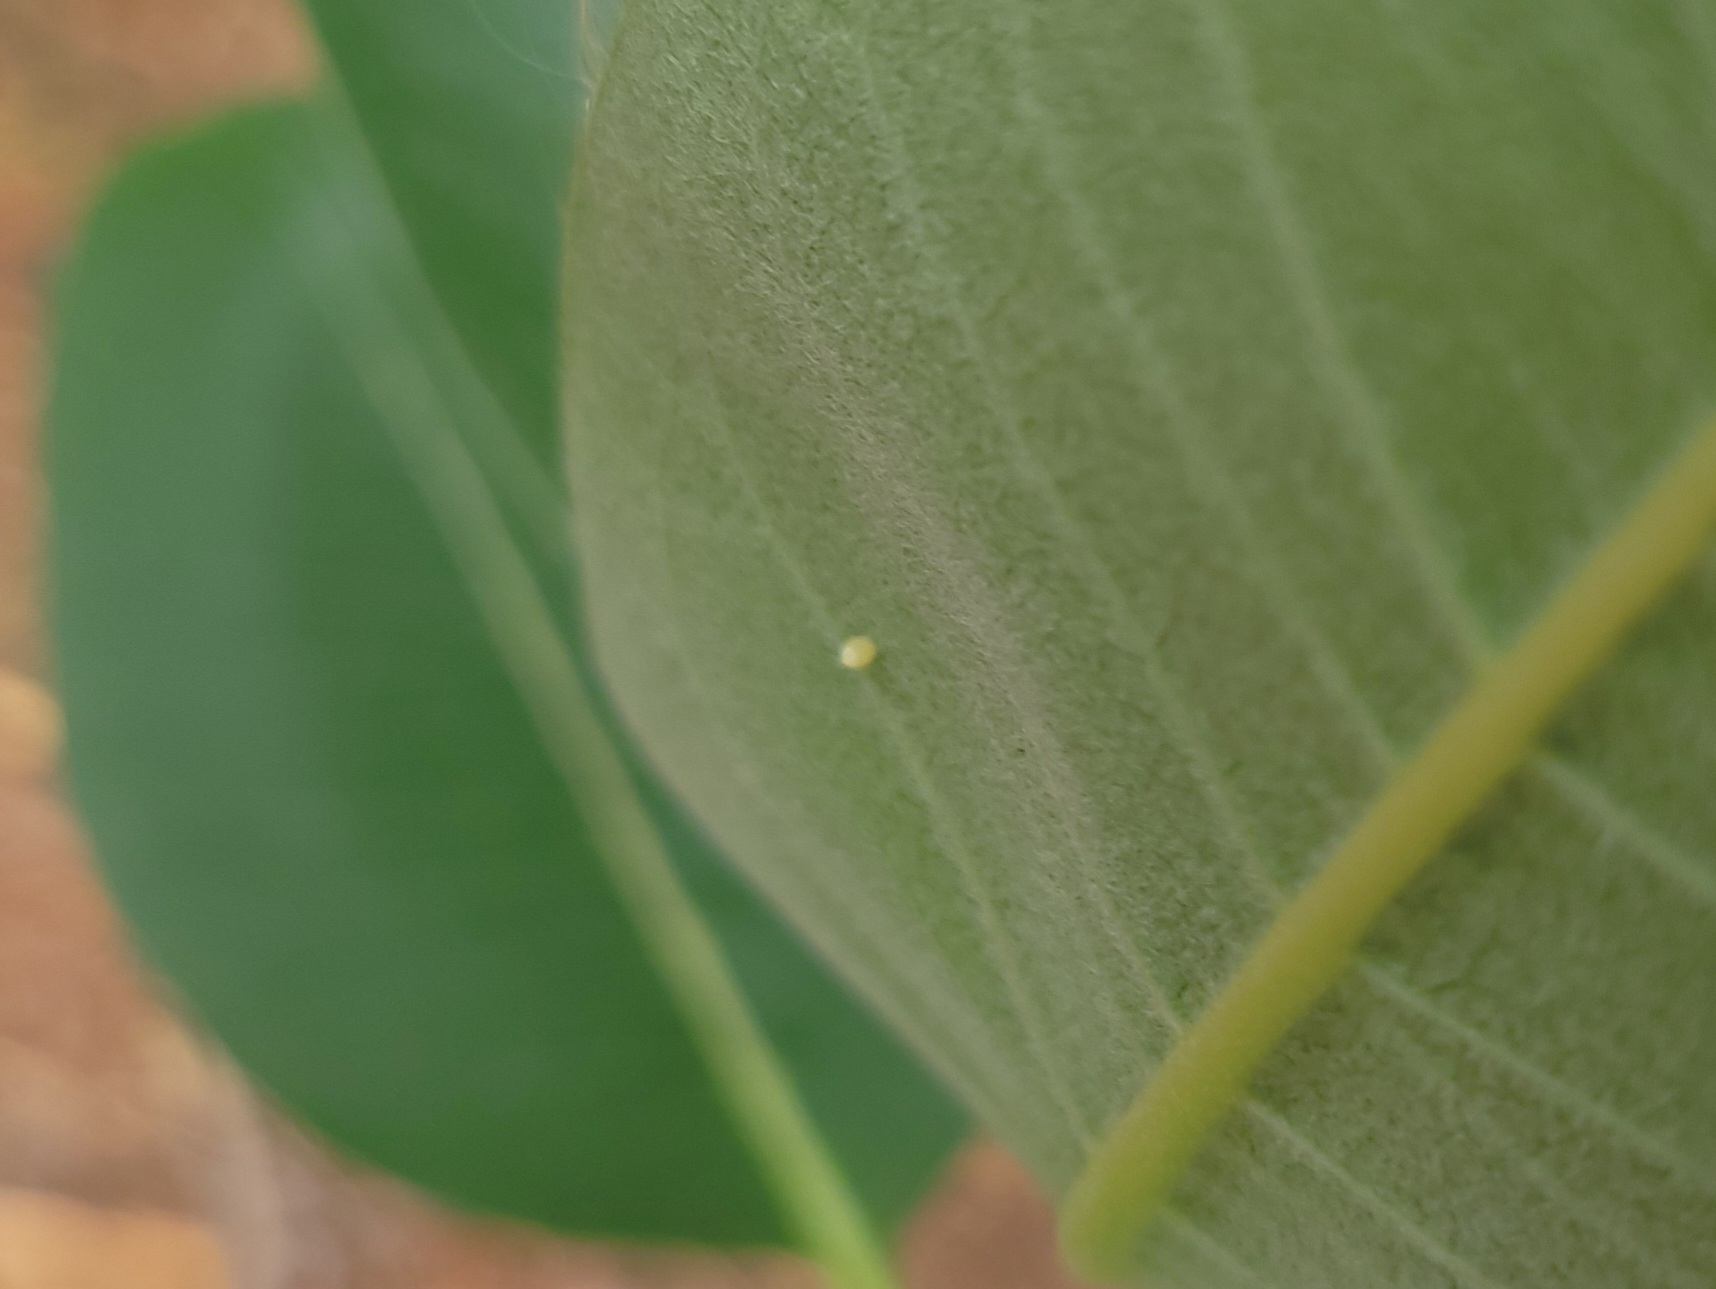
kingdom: Animalia
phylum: Arthropoda
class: Insecta
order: Lepidoptera
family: Nymphalidae
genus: Danaus
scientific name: Danaus plexippus
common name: Monarch
